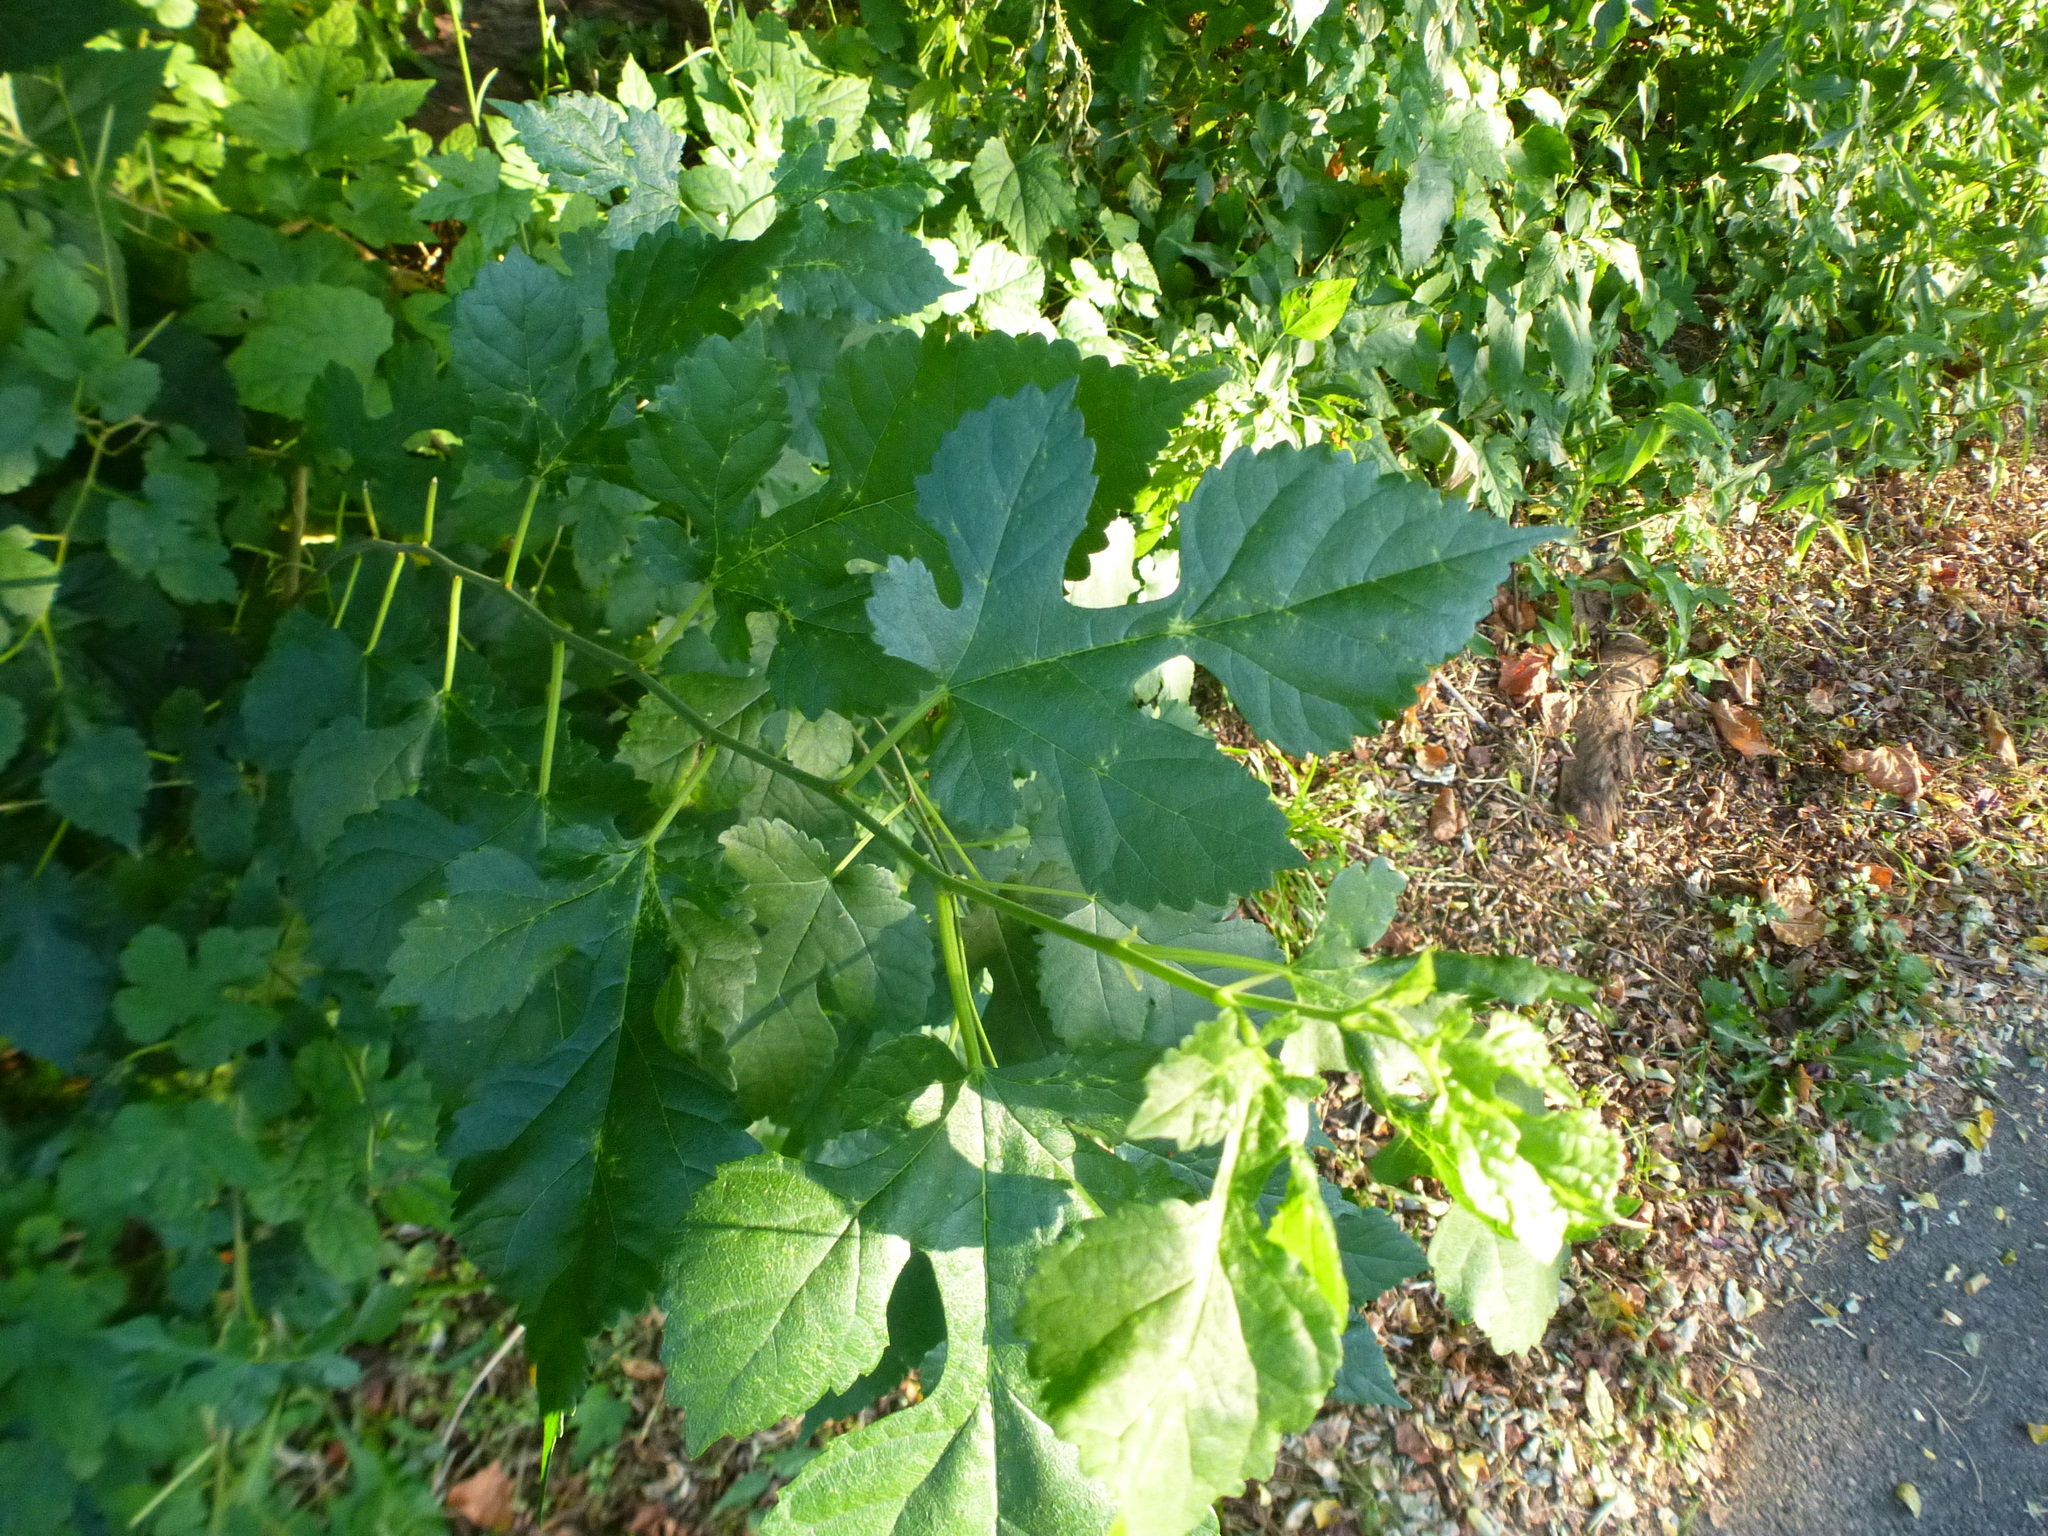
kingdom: Plantae
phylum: Tracheophyta
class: Magnoliopsida
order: Rosales
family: Moraceae
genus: Morus
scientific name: Morus alba
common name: White mulberry
